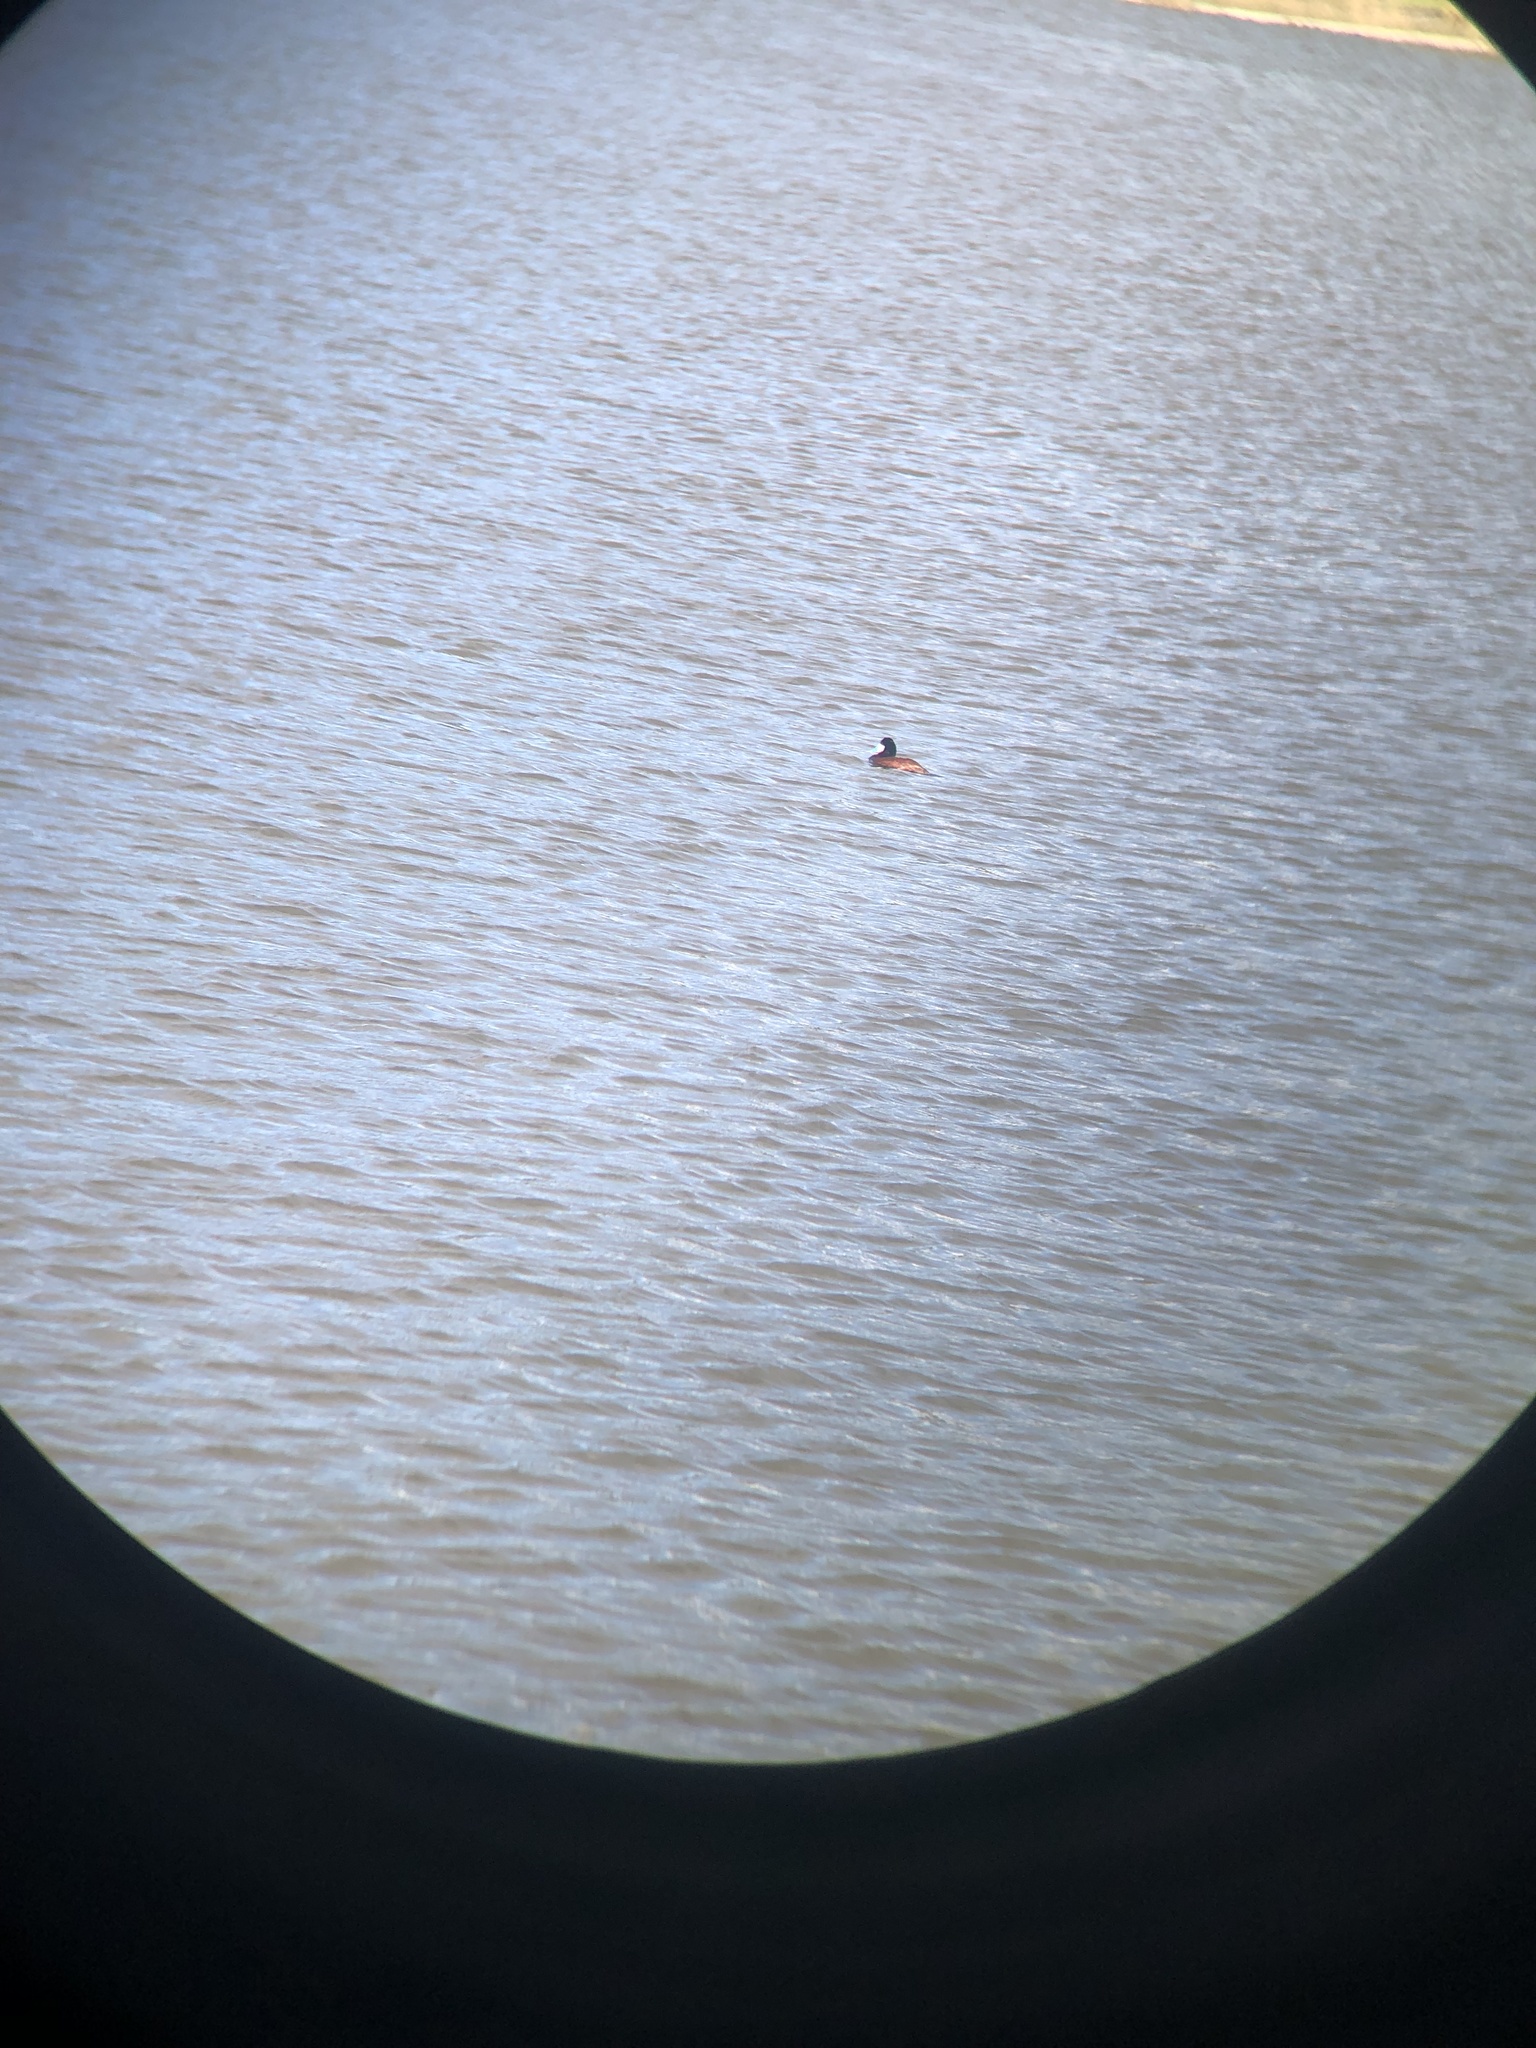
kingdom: Animalia
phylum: Chordata
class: Aves
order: Anseriformes
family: Anatidae
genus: Oxyura
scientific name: Oxyura jamaicensis
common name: Ruddy duck
